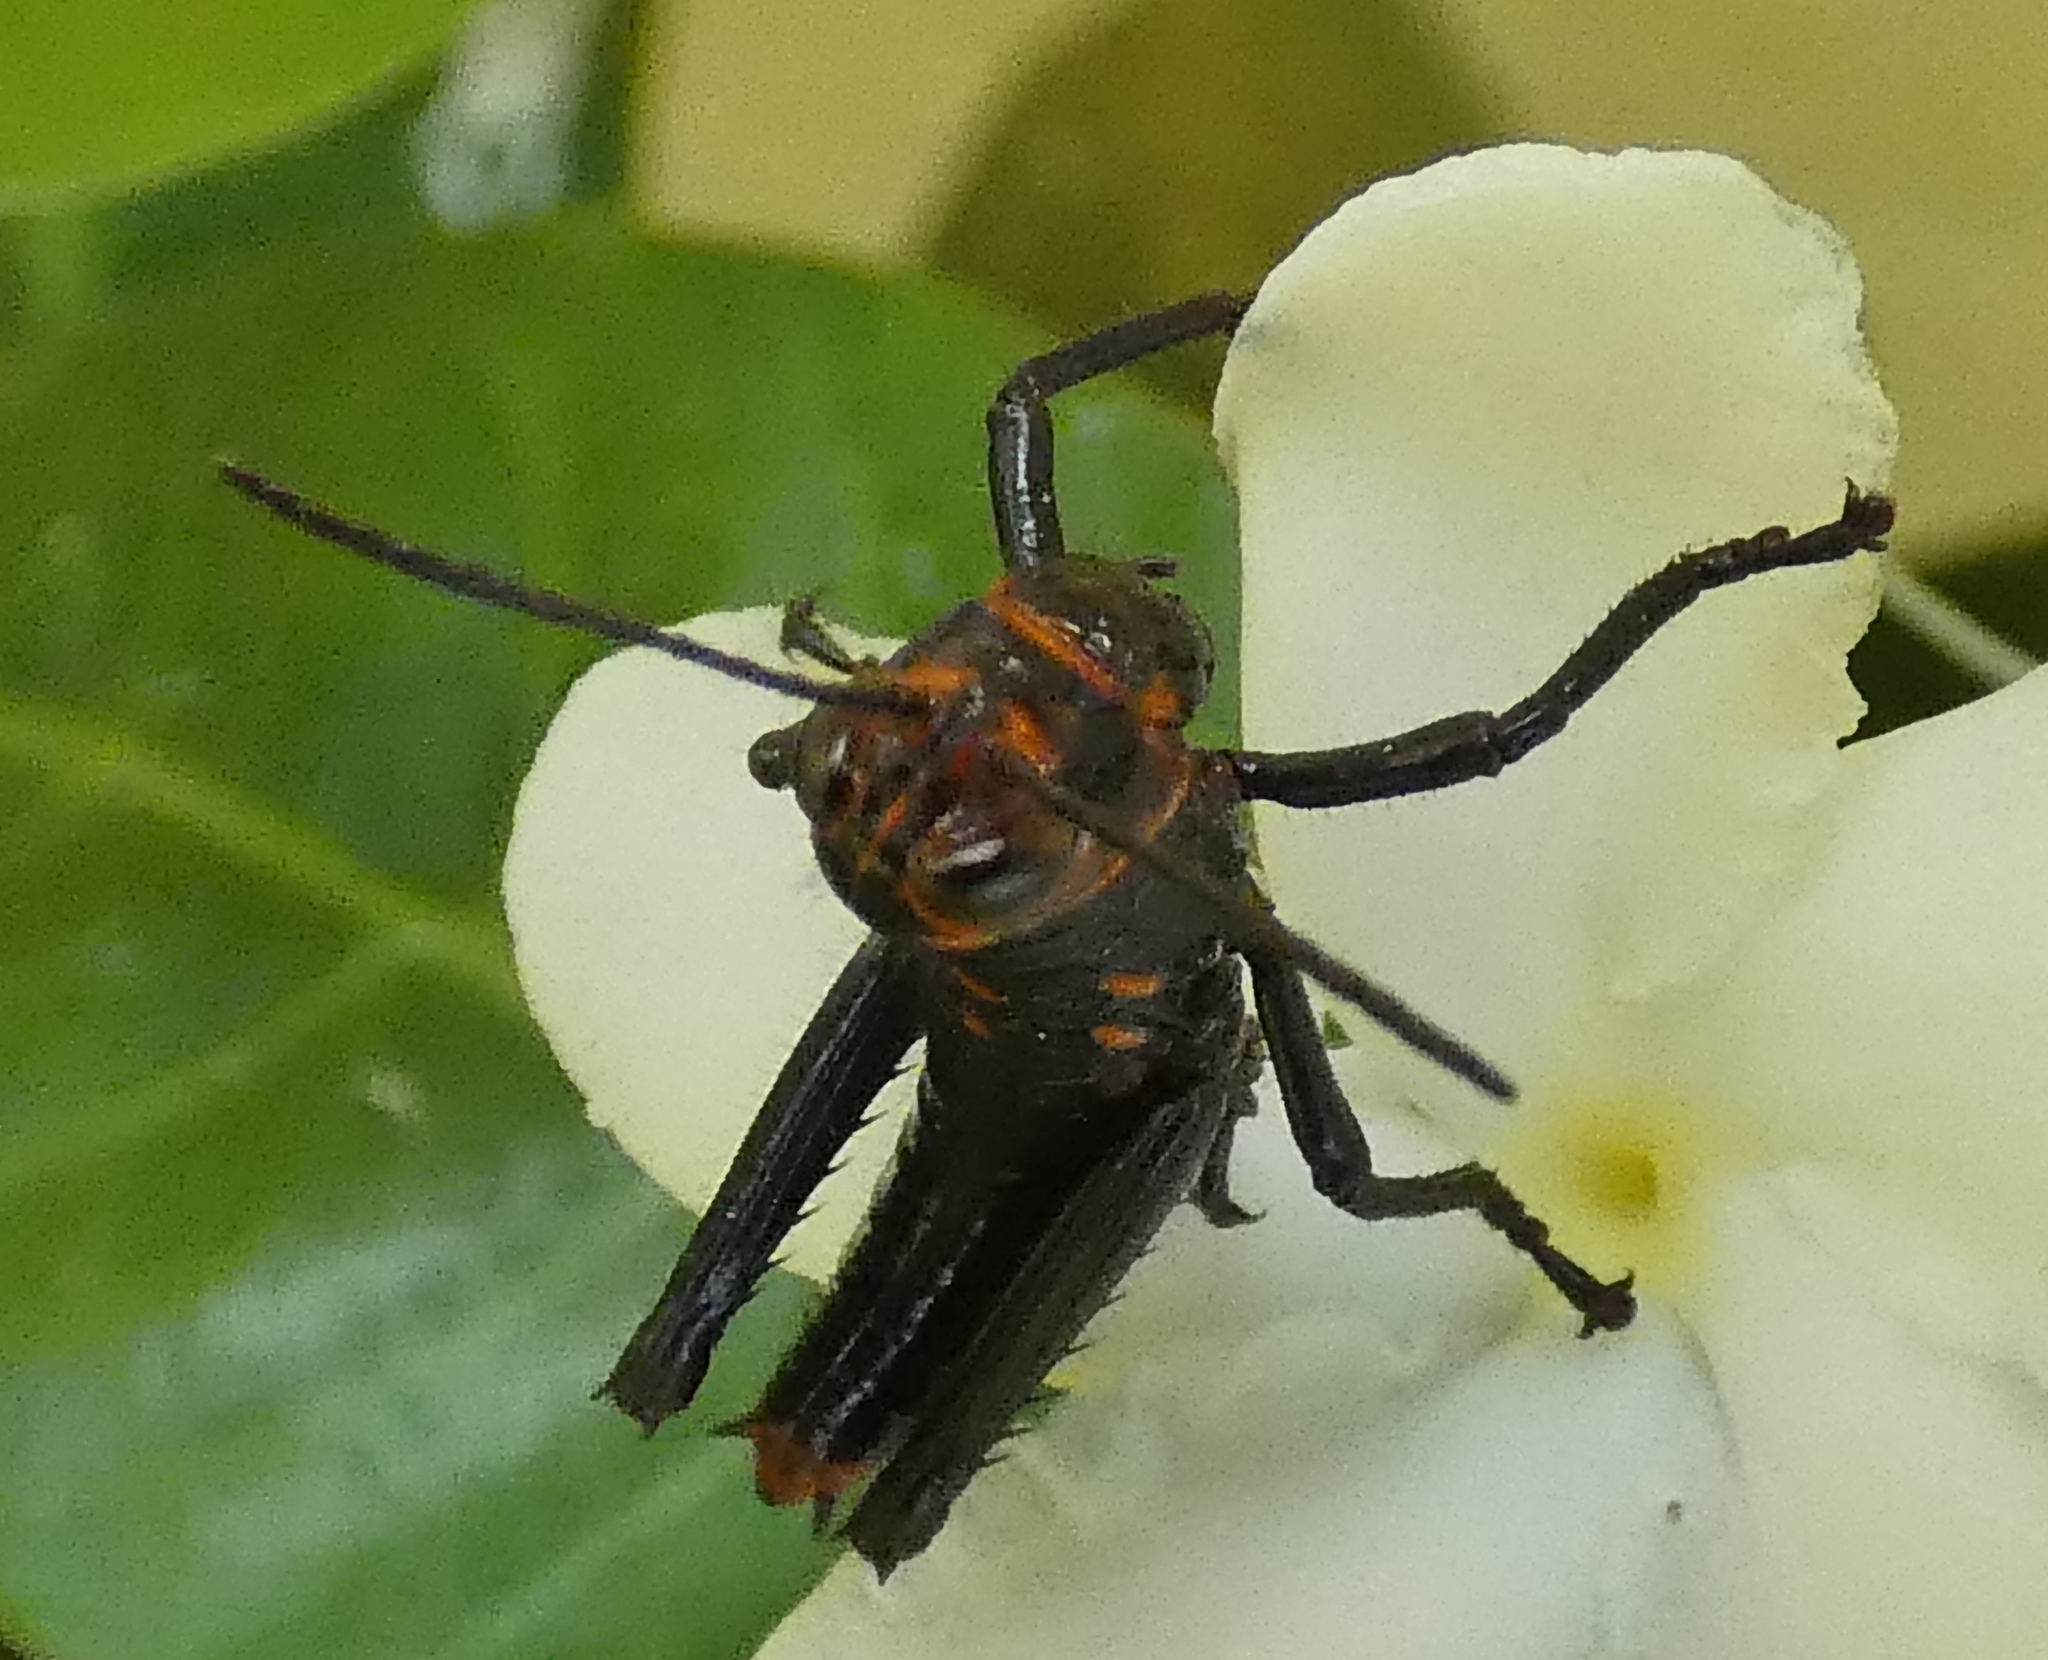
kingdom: Animalia
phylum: Arthropoda
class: Insecta
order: Orthoptera
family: Romaleidae
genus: Tropidacris
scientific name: Tropidacris collaris
